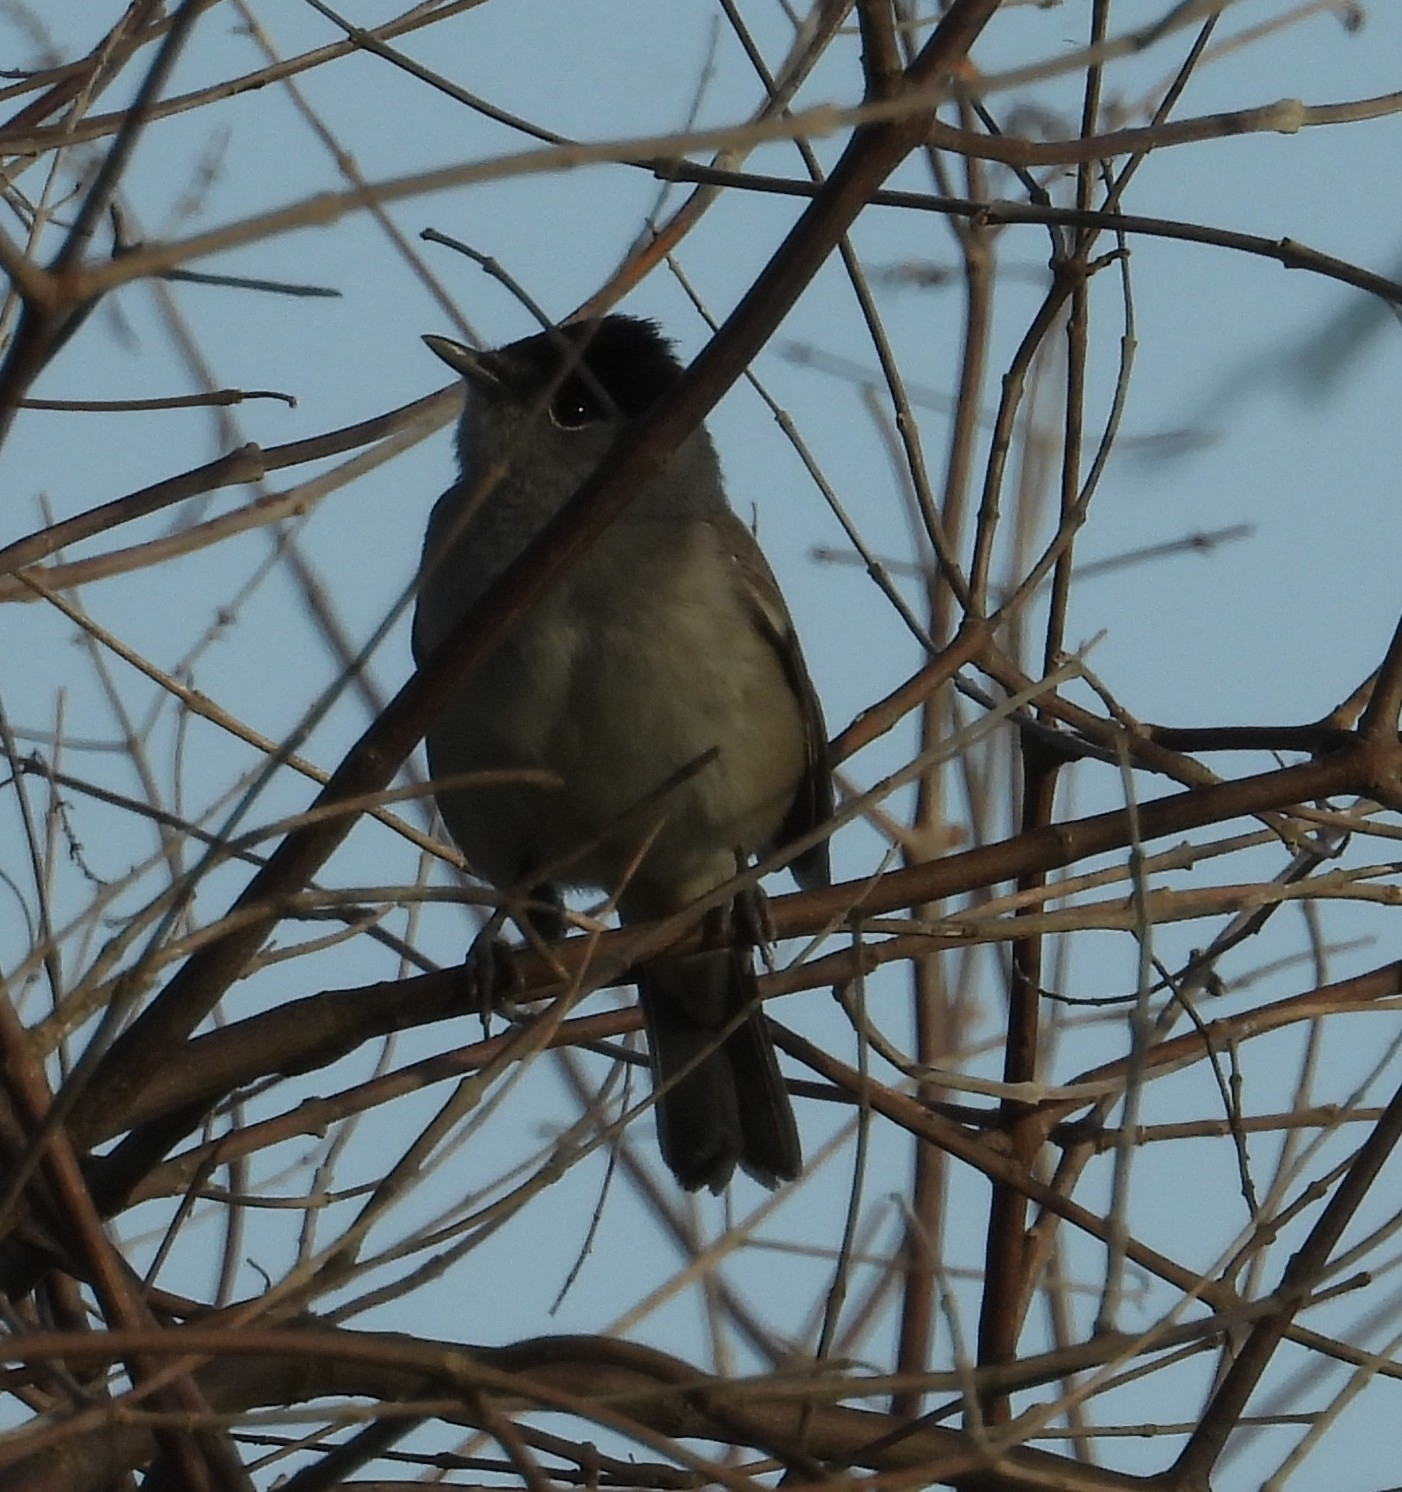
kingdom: Animalia
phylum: Chordata
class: Aves
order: Passeriformes
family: Sylviidae
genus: Sylvia
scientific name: Sylvia atricapilla
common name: Eurasian blackcap
